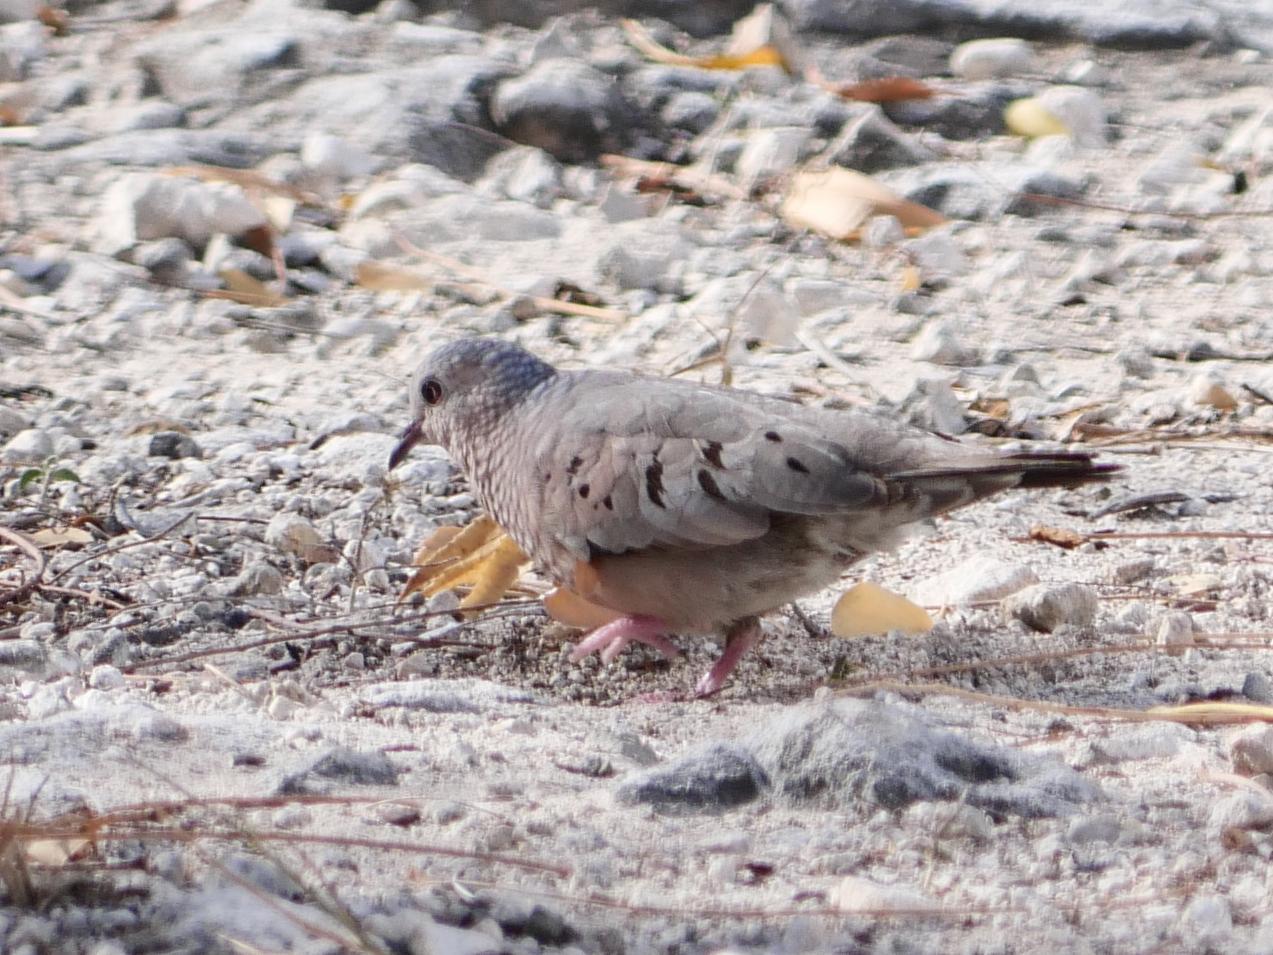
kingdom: Animalia
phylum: Chordata
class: Aves
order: Columbiformes
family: Columbidae
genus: Columbina
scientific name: Columbina passerina
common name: Common ground-dove
